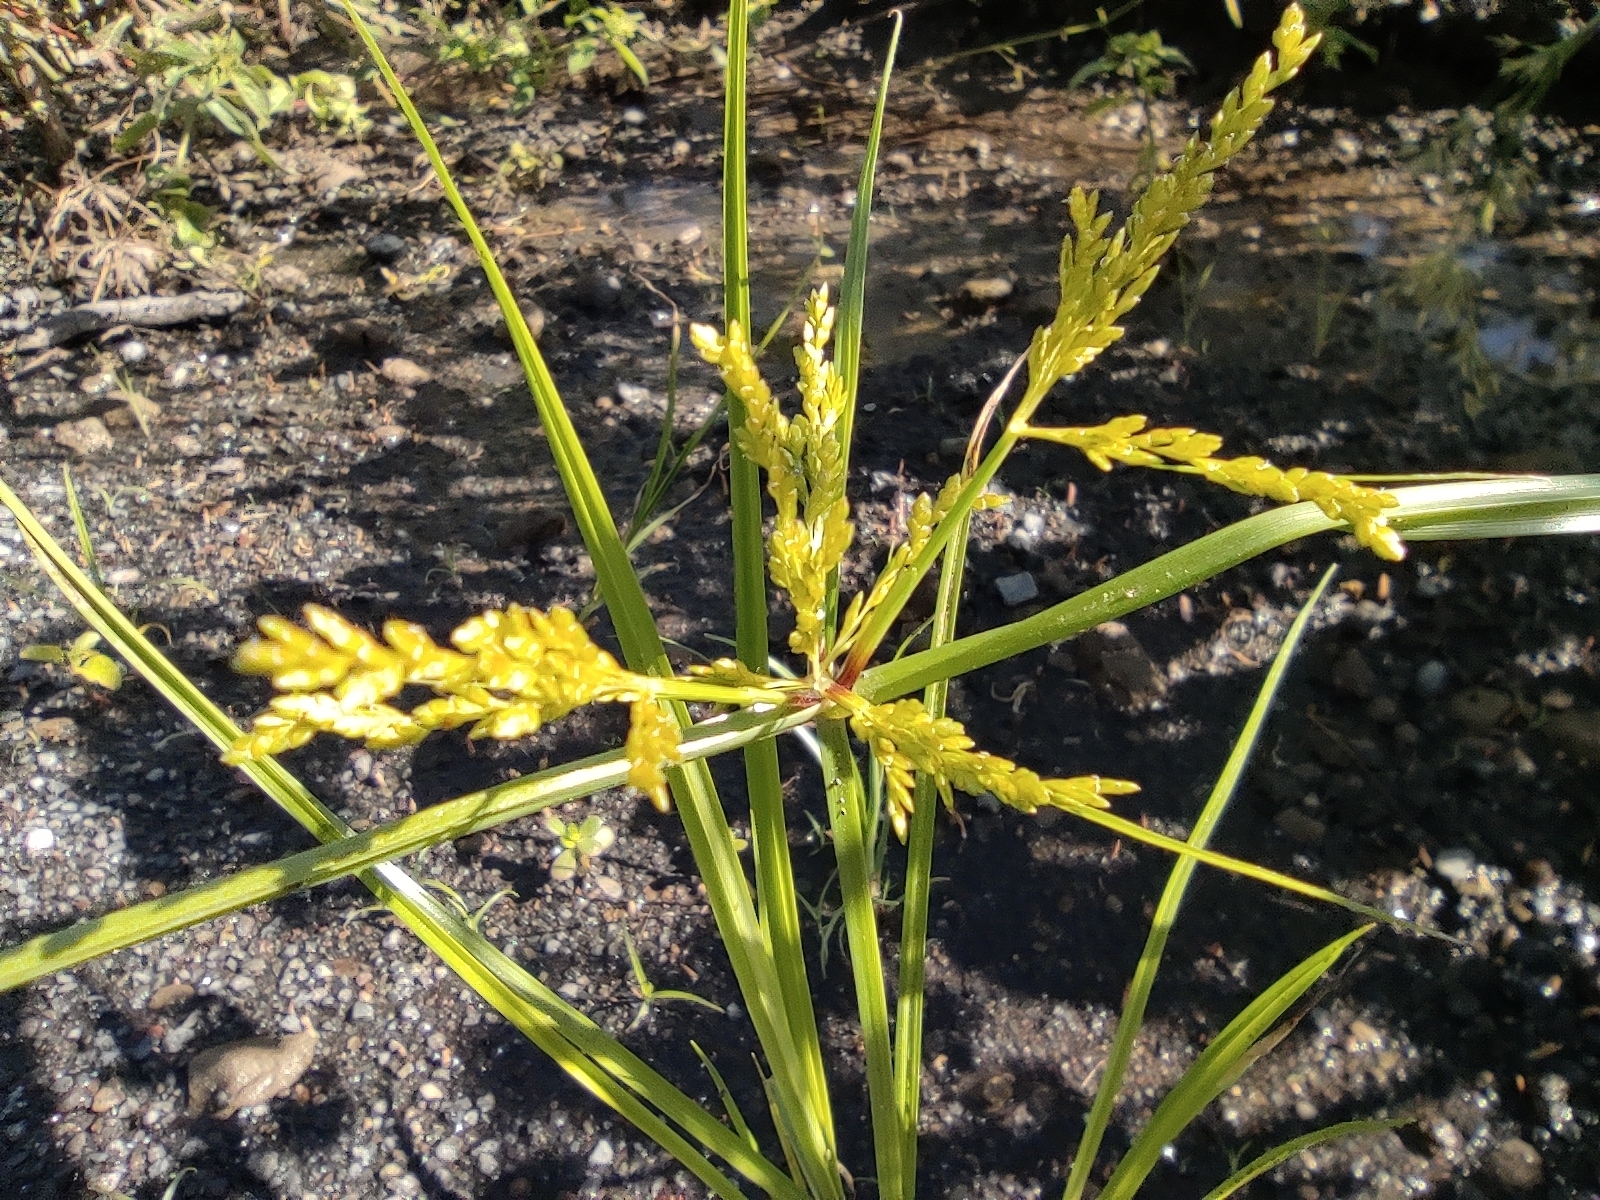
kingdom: Plantae
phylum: Tracheophyta
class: Liliopsida
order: Poales
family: Cyperaceae
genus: Cyperus
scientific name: Cyperus iria
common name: Ricefield flatsedge
